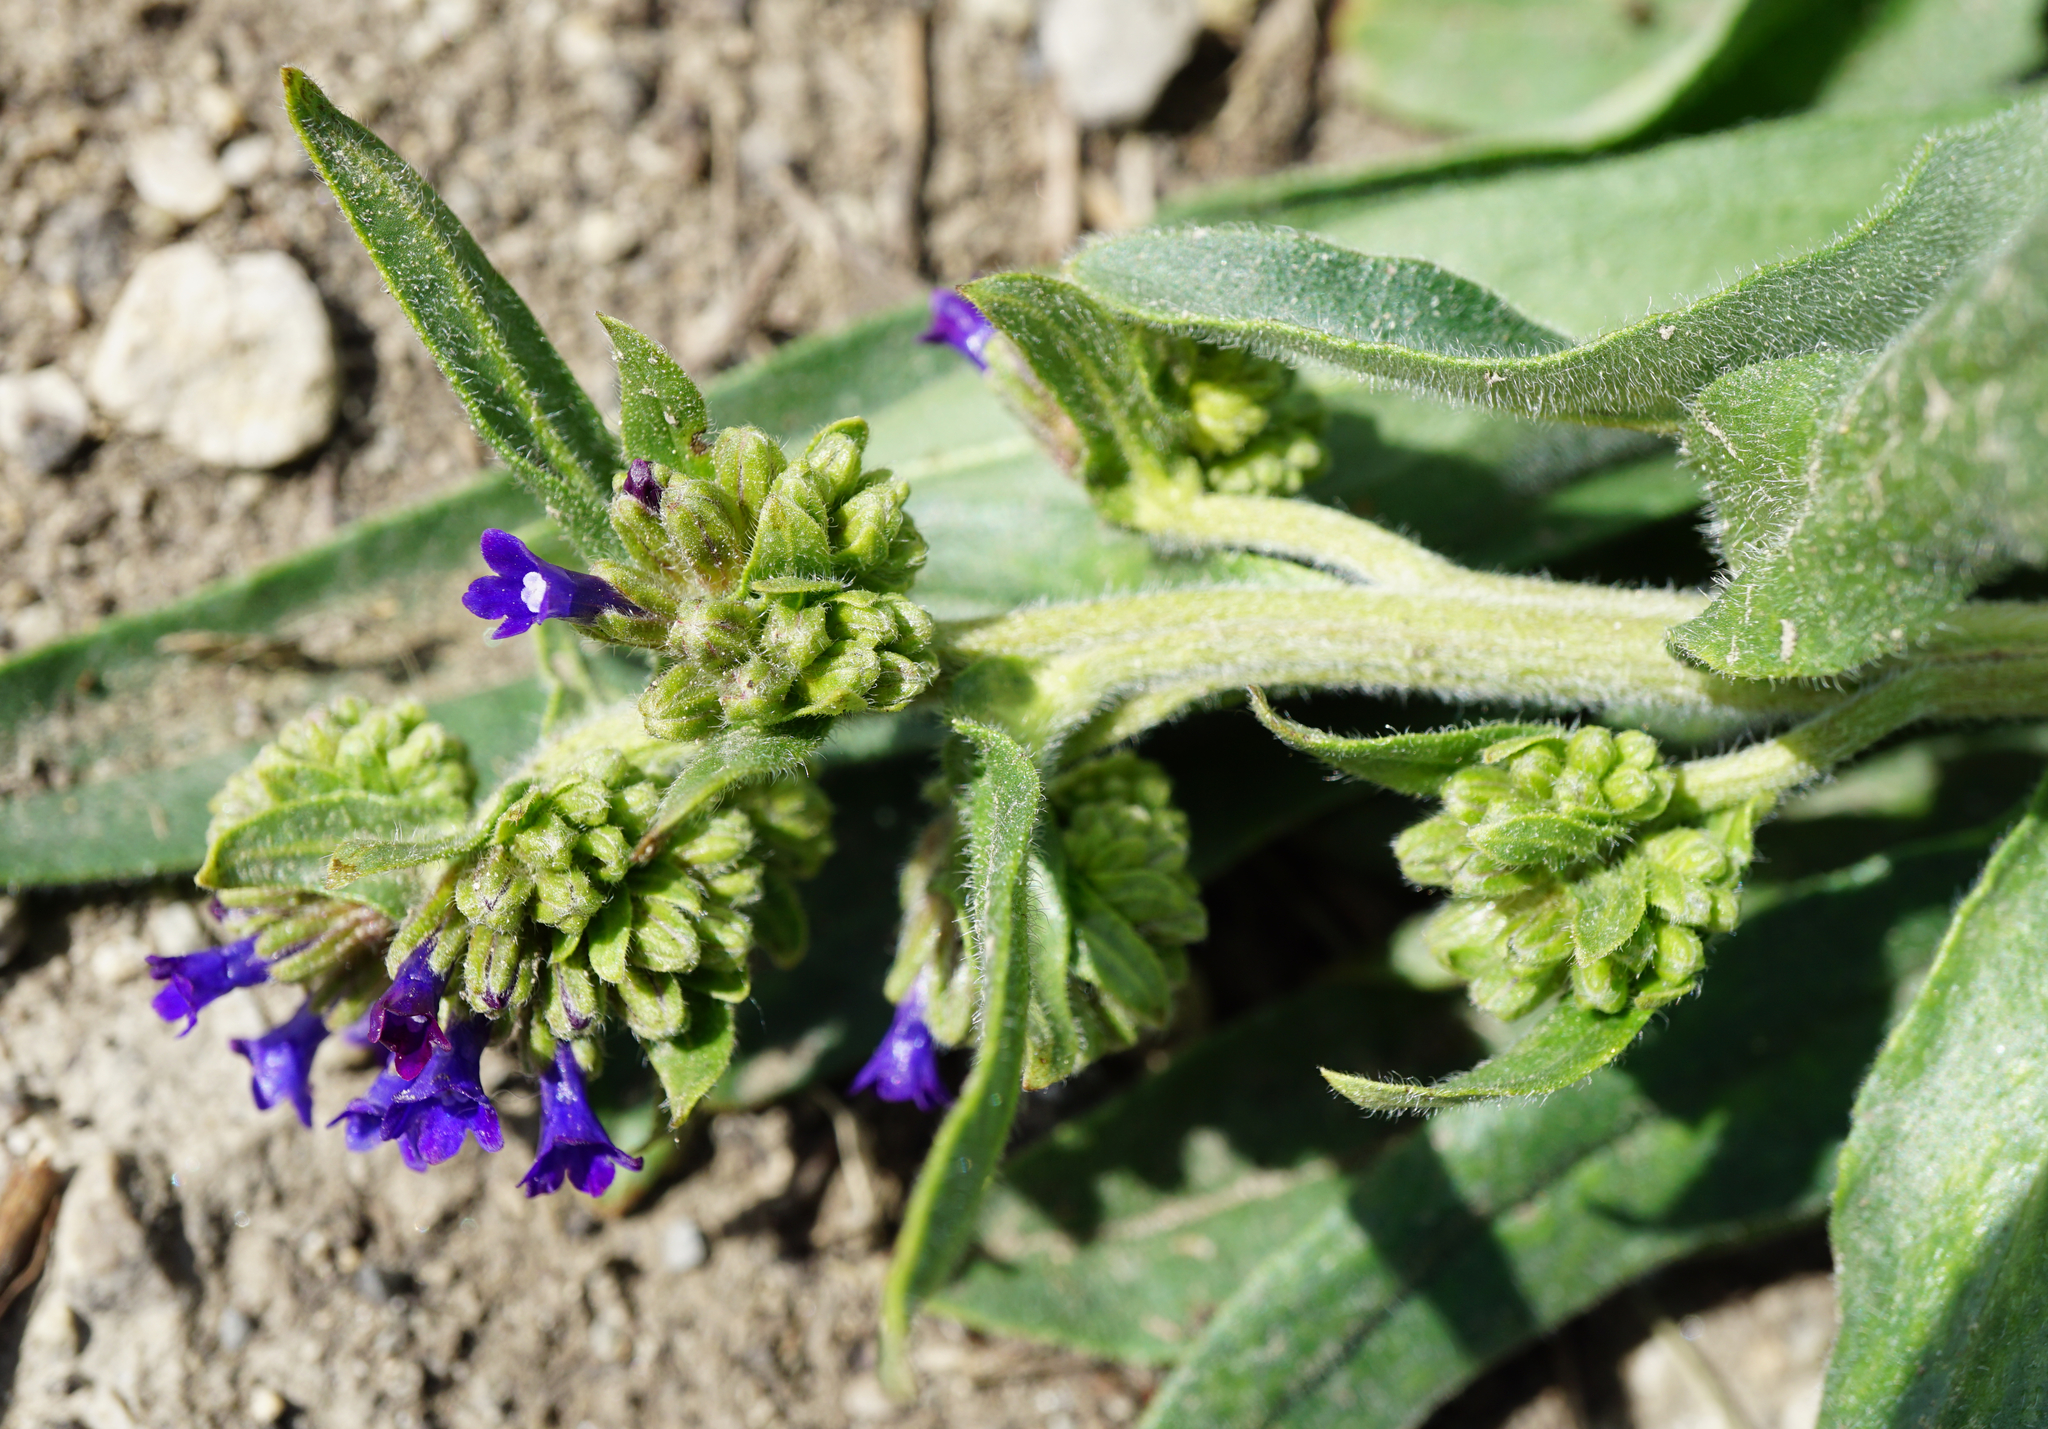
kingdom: Plantae
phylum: Tracheophyta
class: Magnoliopsida
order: Boraginales
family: Boraginaceae
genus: Anchusa
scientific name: Anchusa officinalis
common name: Alkanet
